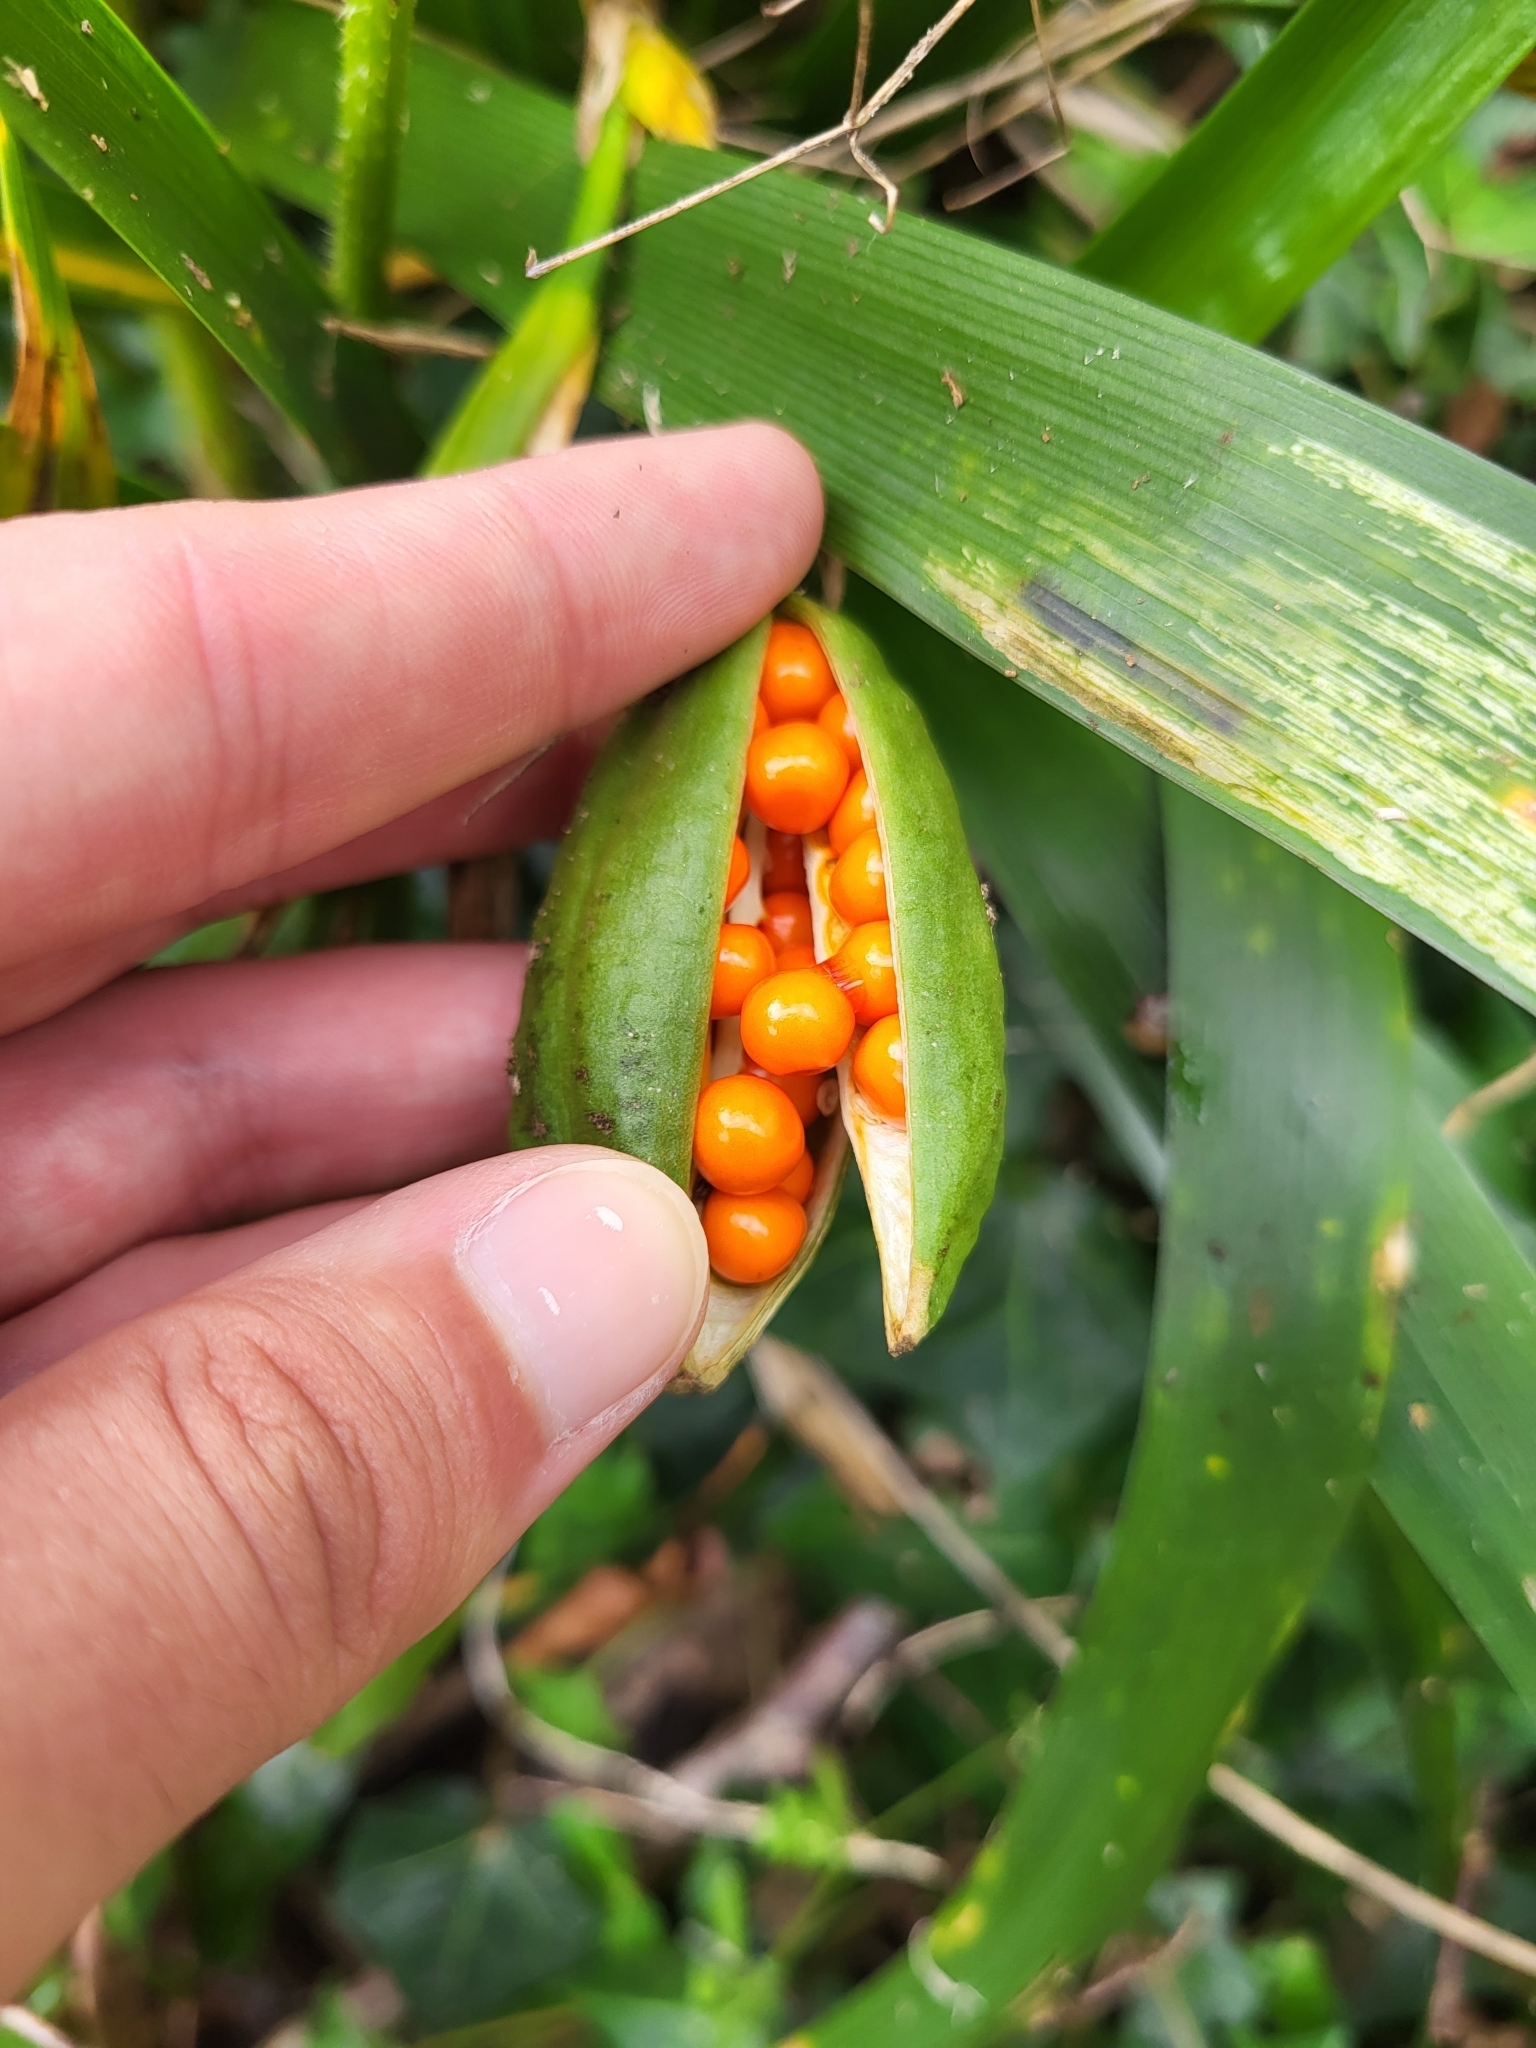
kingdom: Plantae
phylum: Tracheophyta
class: Liliopsida
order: Asparagales
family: Iridaceae
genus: Iris
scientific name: Iris foetidissima
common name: Stinking iris
